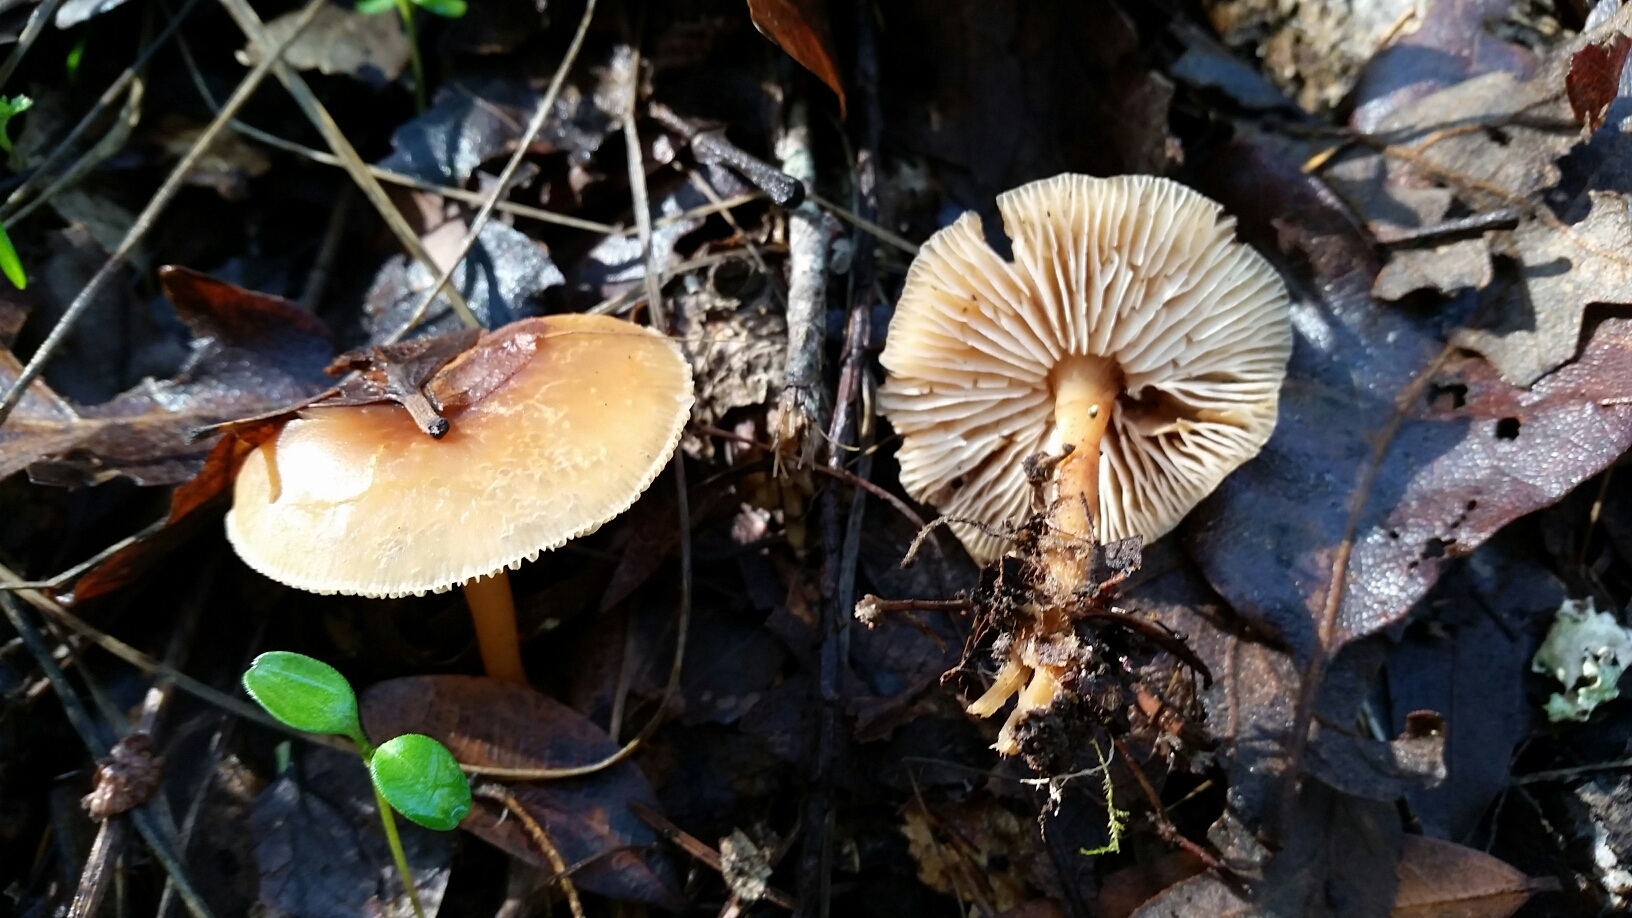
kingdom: Fungi
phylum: Basidiomycota
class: Agaricomycetes
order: Agaricales
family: Omphalotaceae
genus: Gymnopus
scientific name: Gymnopus dryophilus
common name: Penny top
